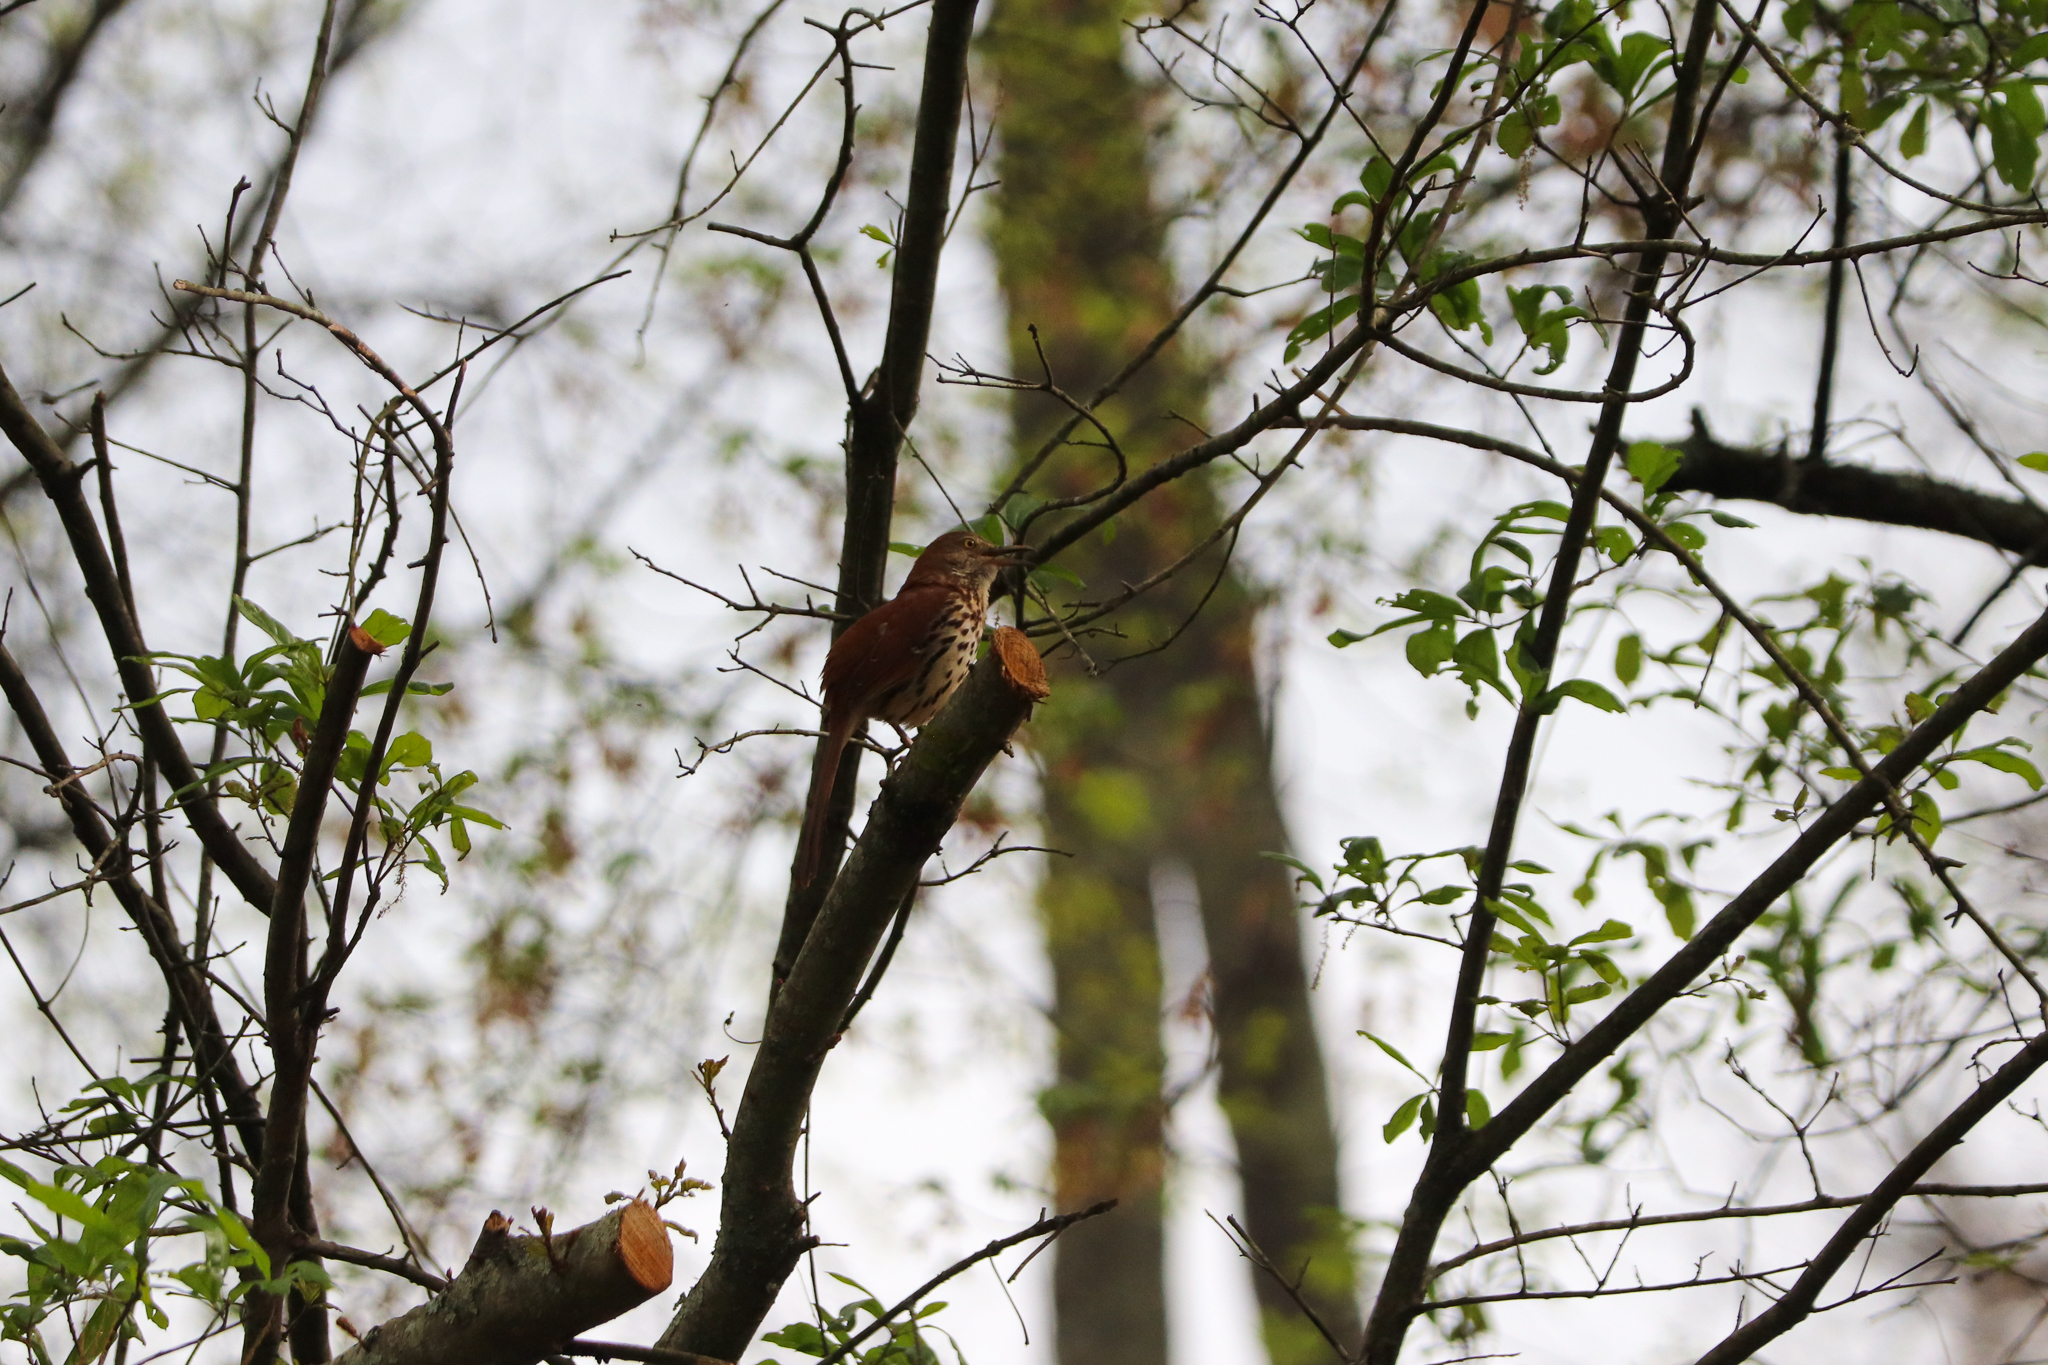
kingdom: Animalia
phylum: Chordata
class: Aves
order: Passeriformes
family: Mimidae
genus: Toxostoma
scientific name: Toxostoma rufum
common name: Brown thrasher
